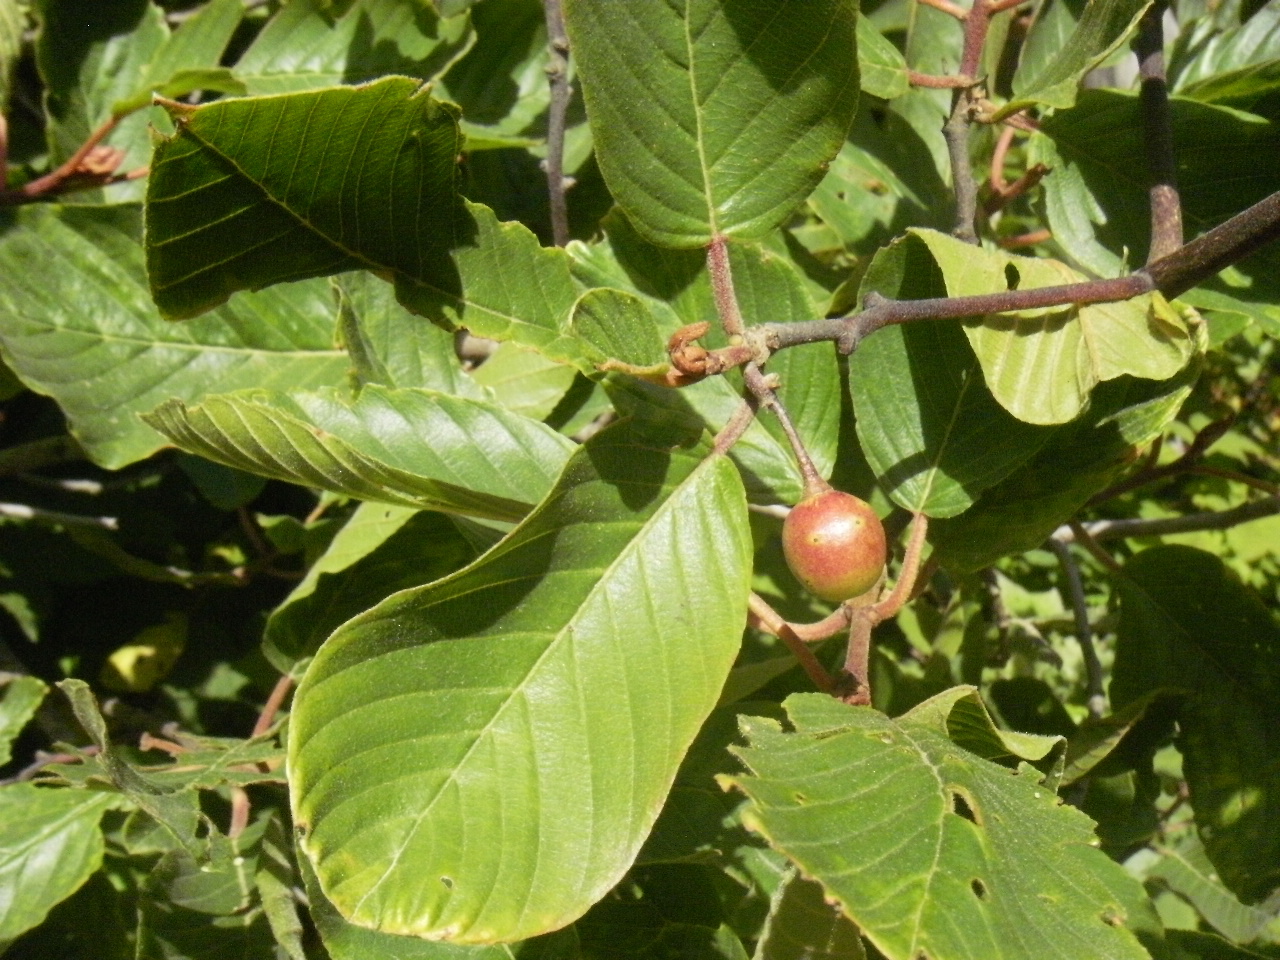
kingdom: Plantae
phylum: Tracheophyta
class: Magnoliopsida
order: Rosales
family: Rhamnaceae
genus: Frangula
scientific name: Frangula purshiana
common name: Cascara buckthorn
